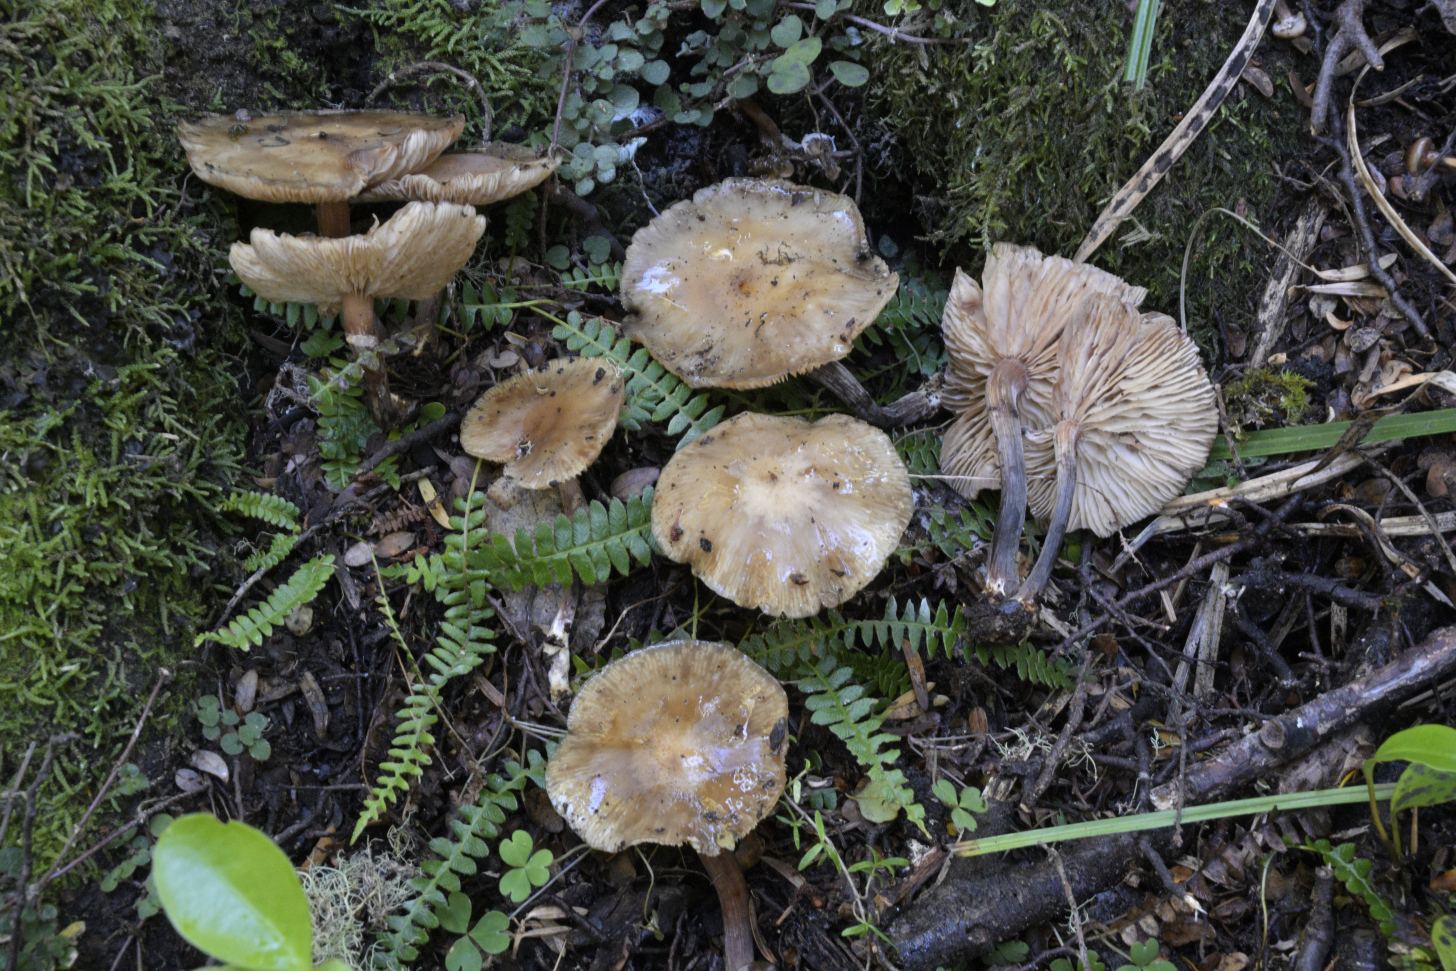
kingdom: Fungi
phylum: Basidiomycota
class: Agaricomycetes
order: Agaricales
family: Physalacriaceae
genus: Armillaria
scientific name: Armillaria novae-zelandiae
